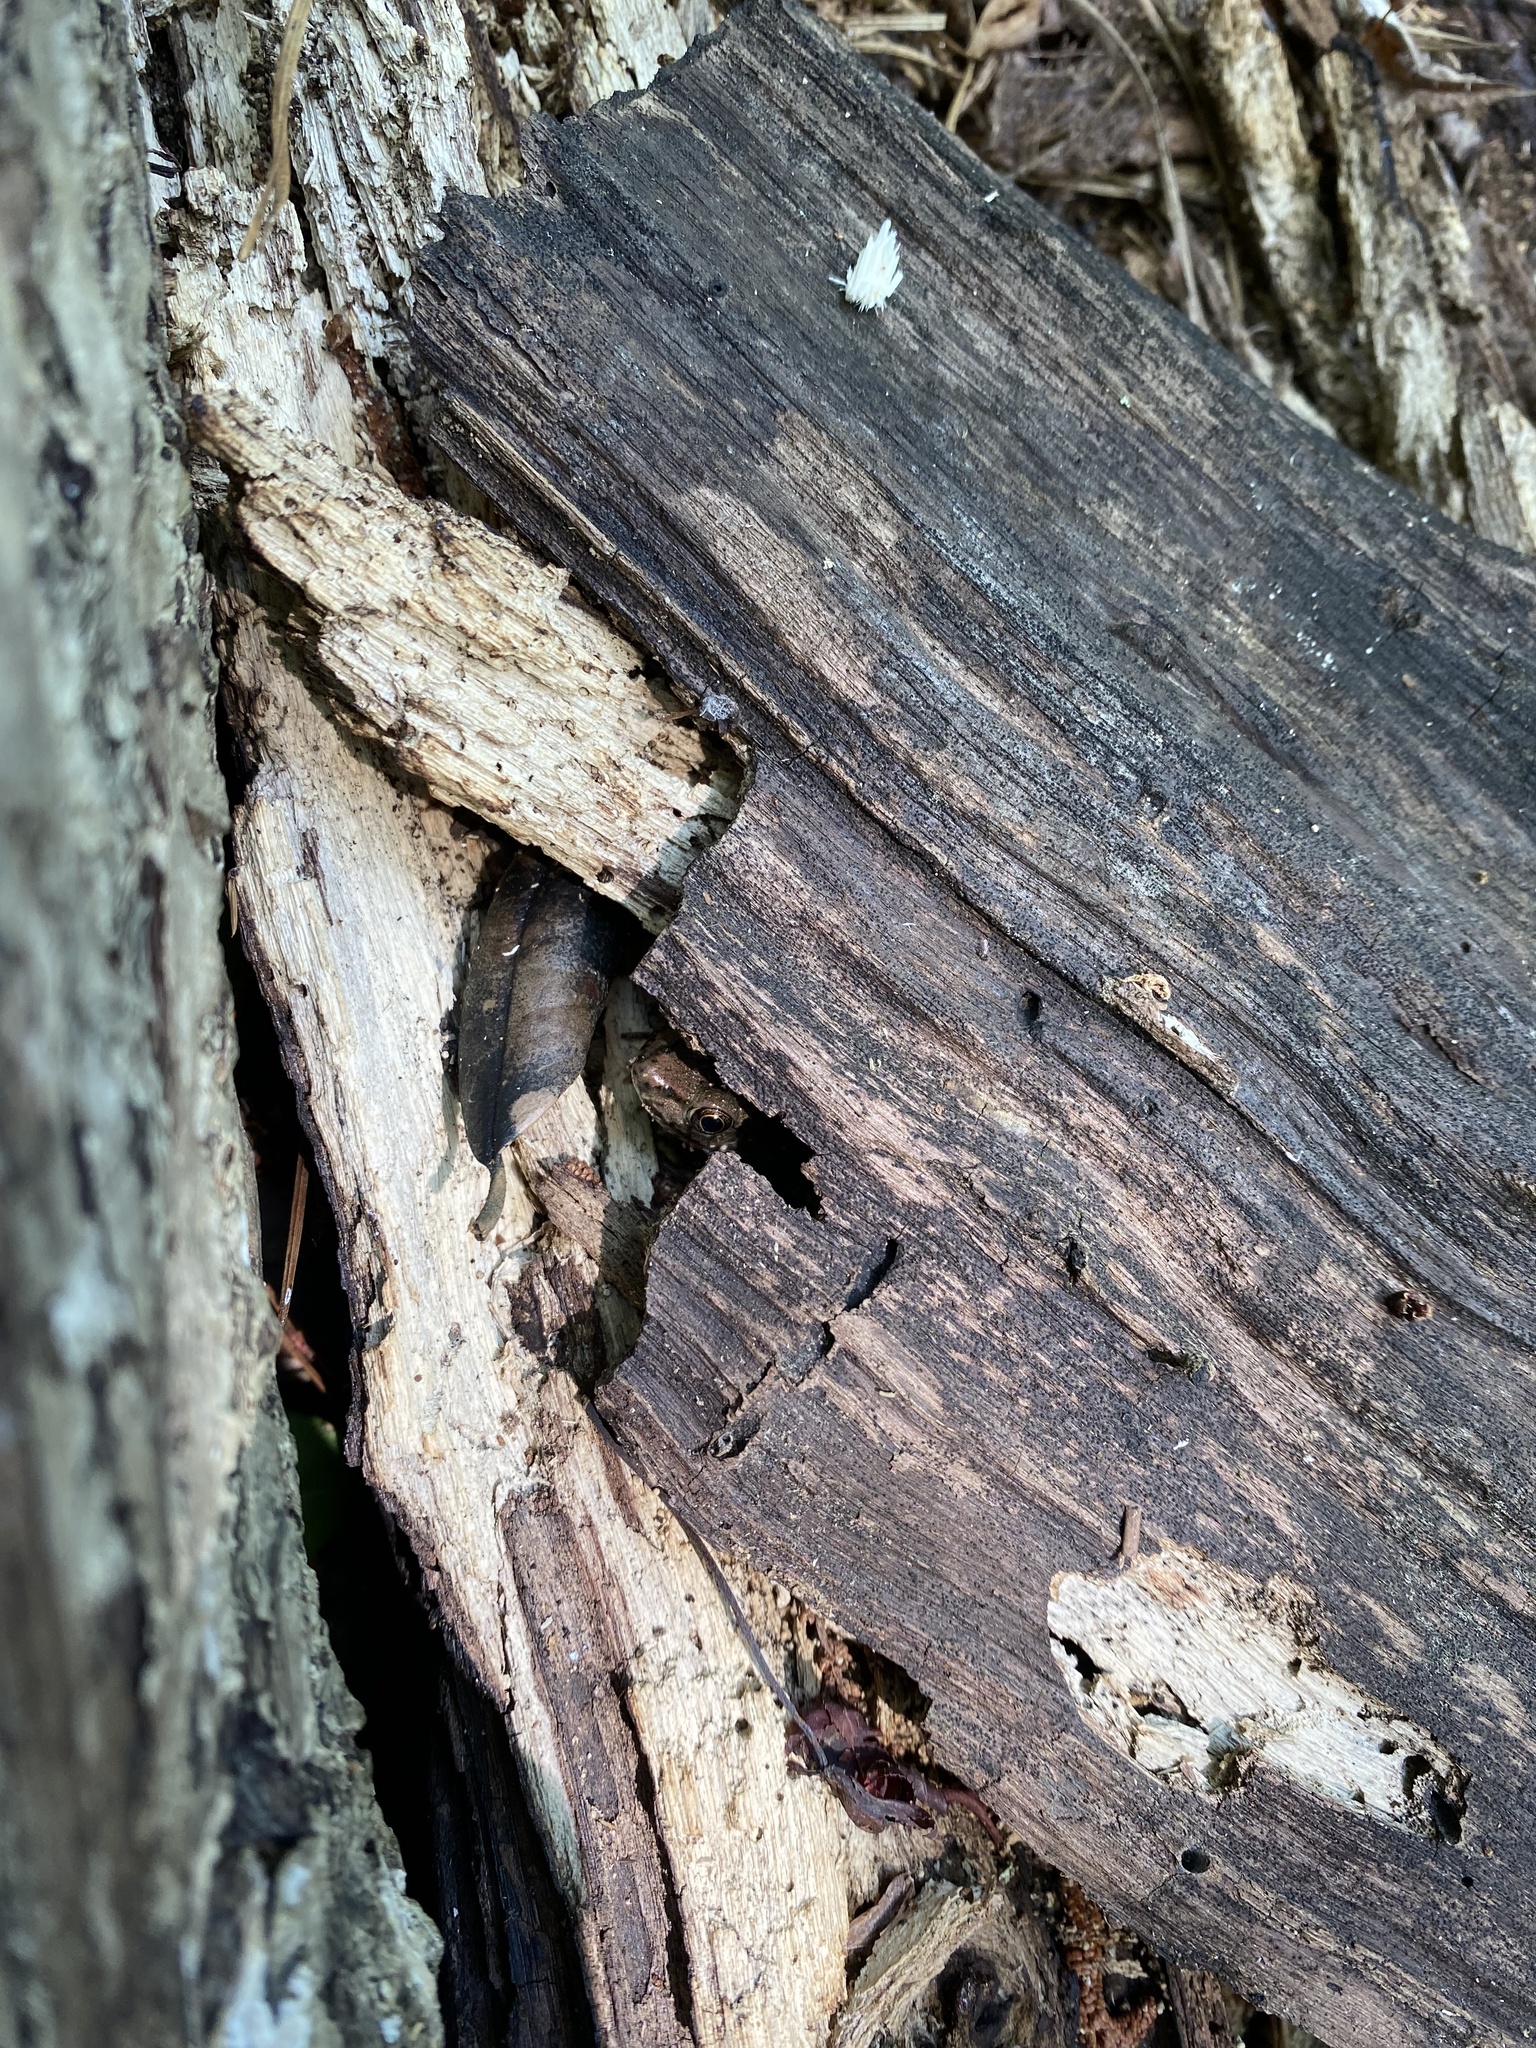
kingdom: Animalia
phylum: Chordata
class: Amphibia
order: Anura
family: Ranidae
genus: Lithobates
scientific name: Lithobates clamitans
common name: Green frog
